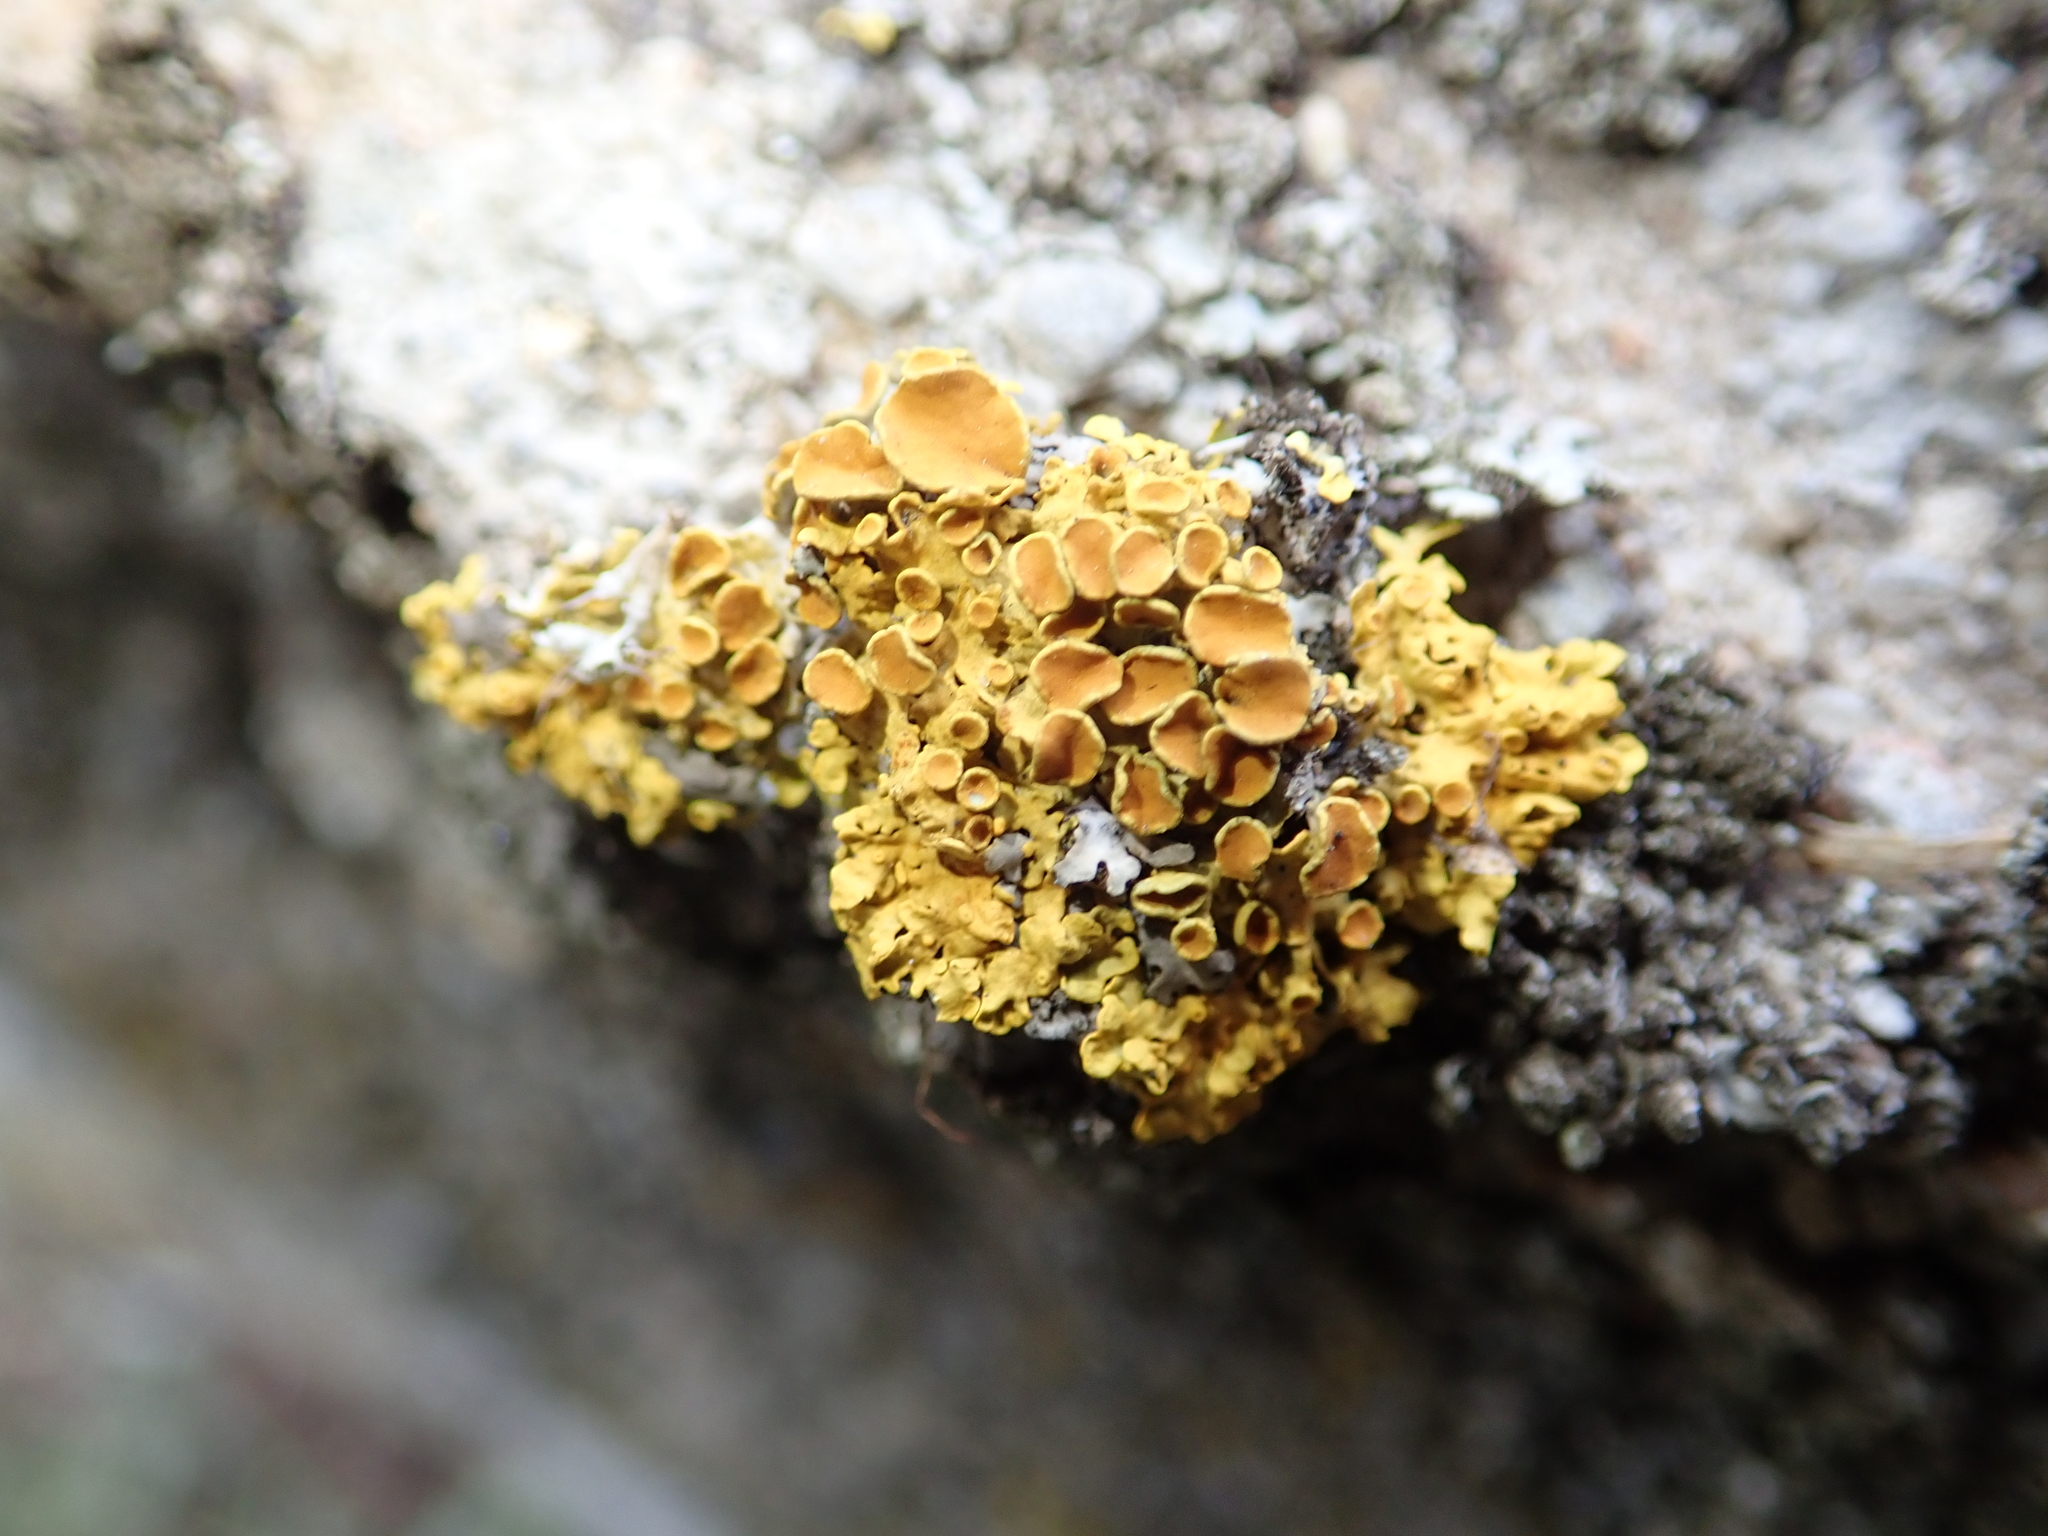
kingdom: Fungi
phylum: Ascomycota
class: Lecanoromycetes
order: Teloschistales
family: Teloschistaceae
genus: Xanthoria
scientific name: Xanthoria parietina
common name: Common orange lichen
